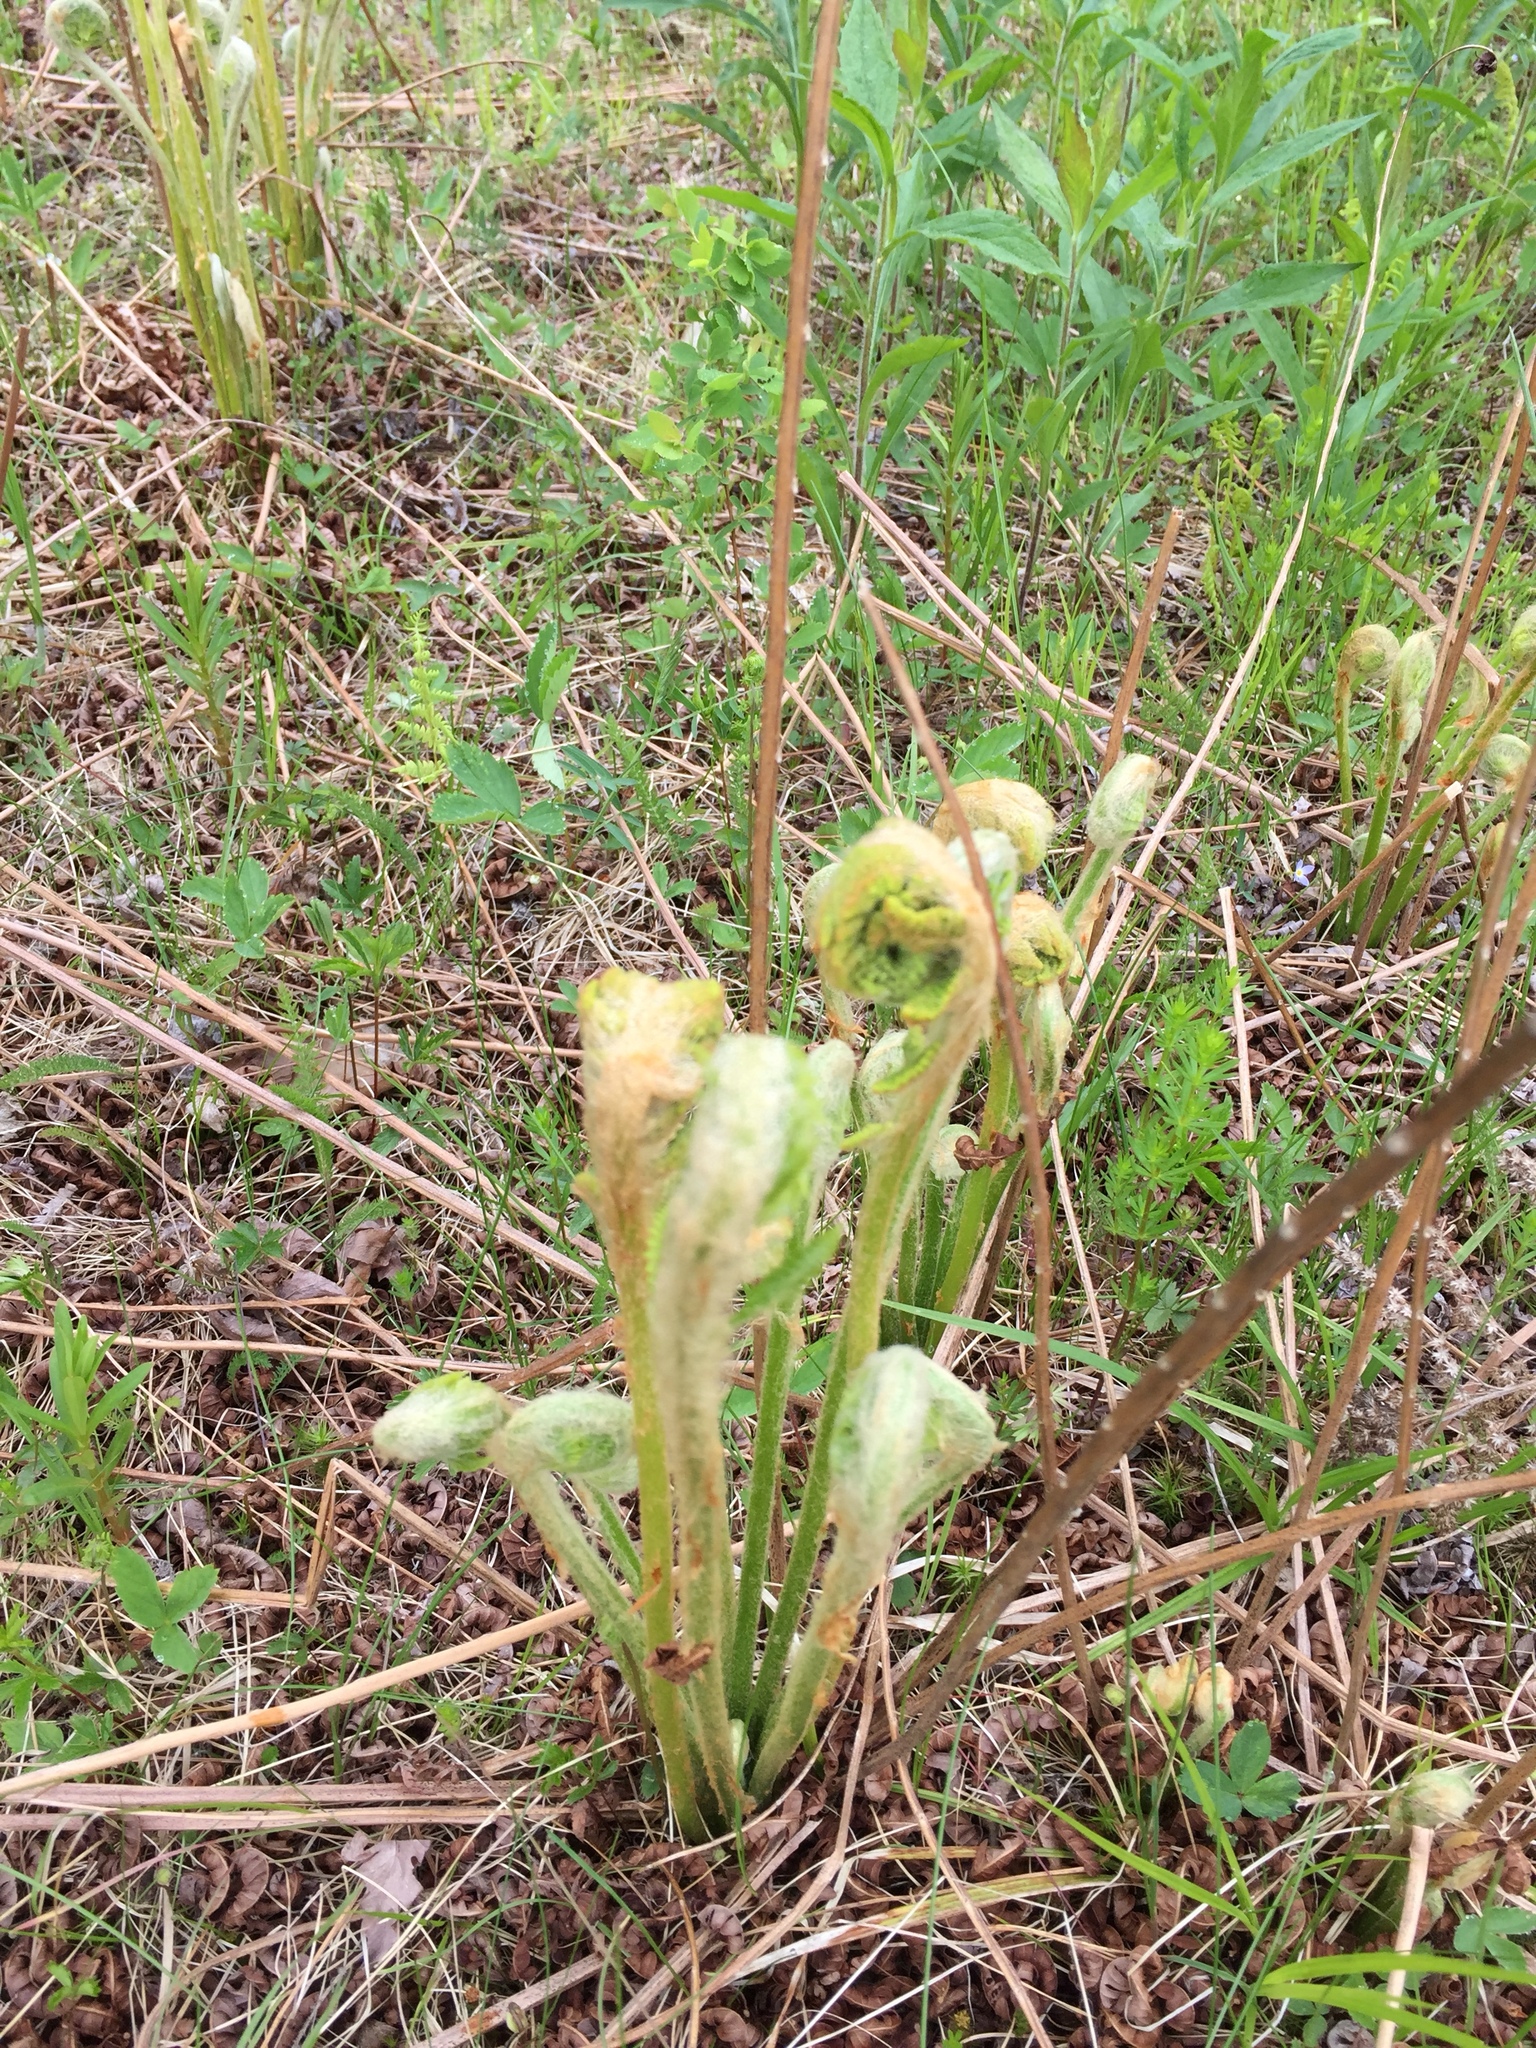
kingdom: Plantae
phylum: Tracheophyta
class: Polypodiopsida
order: Osmundales
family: Osmundaceae
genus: Osmundastrum
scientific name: Osmundastrum cinnamomeum
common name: Cinnamon fern
